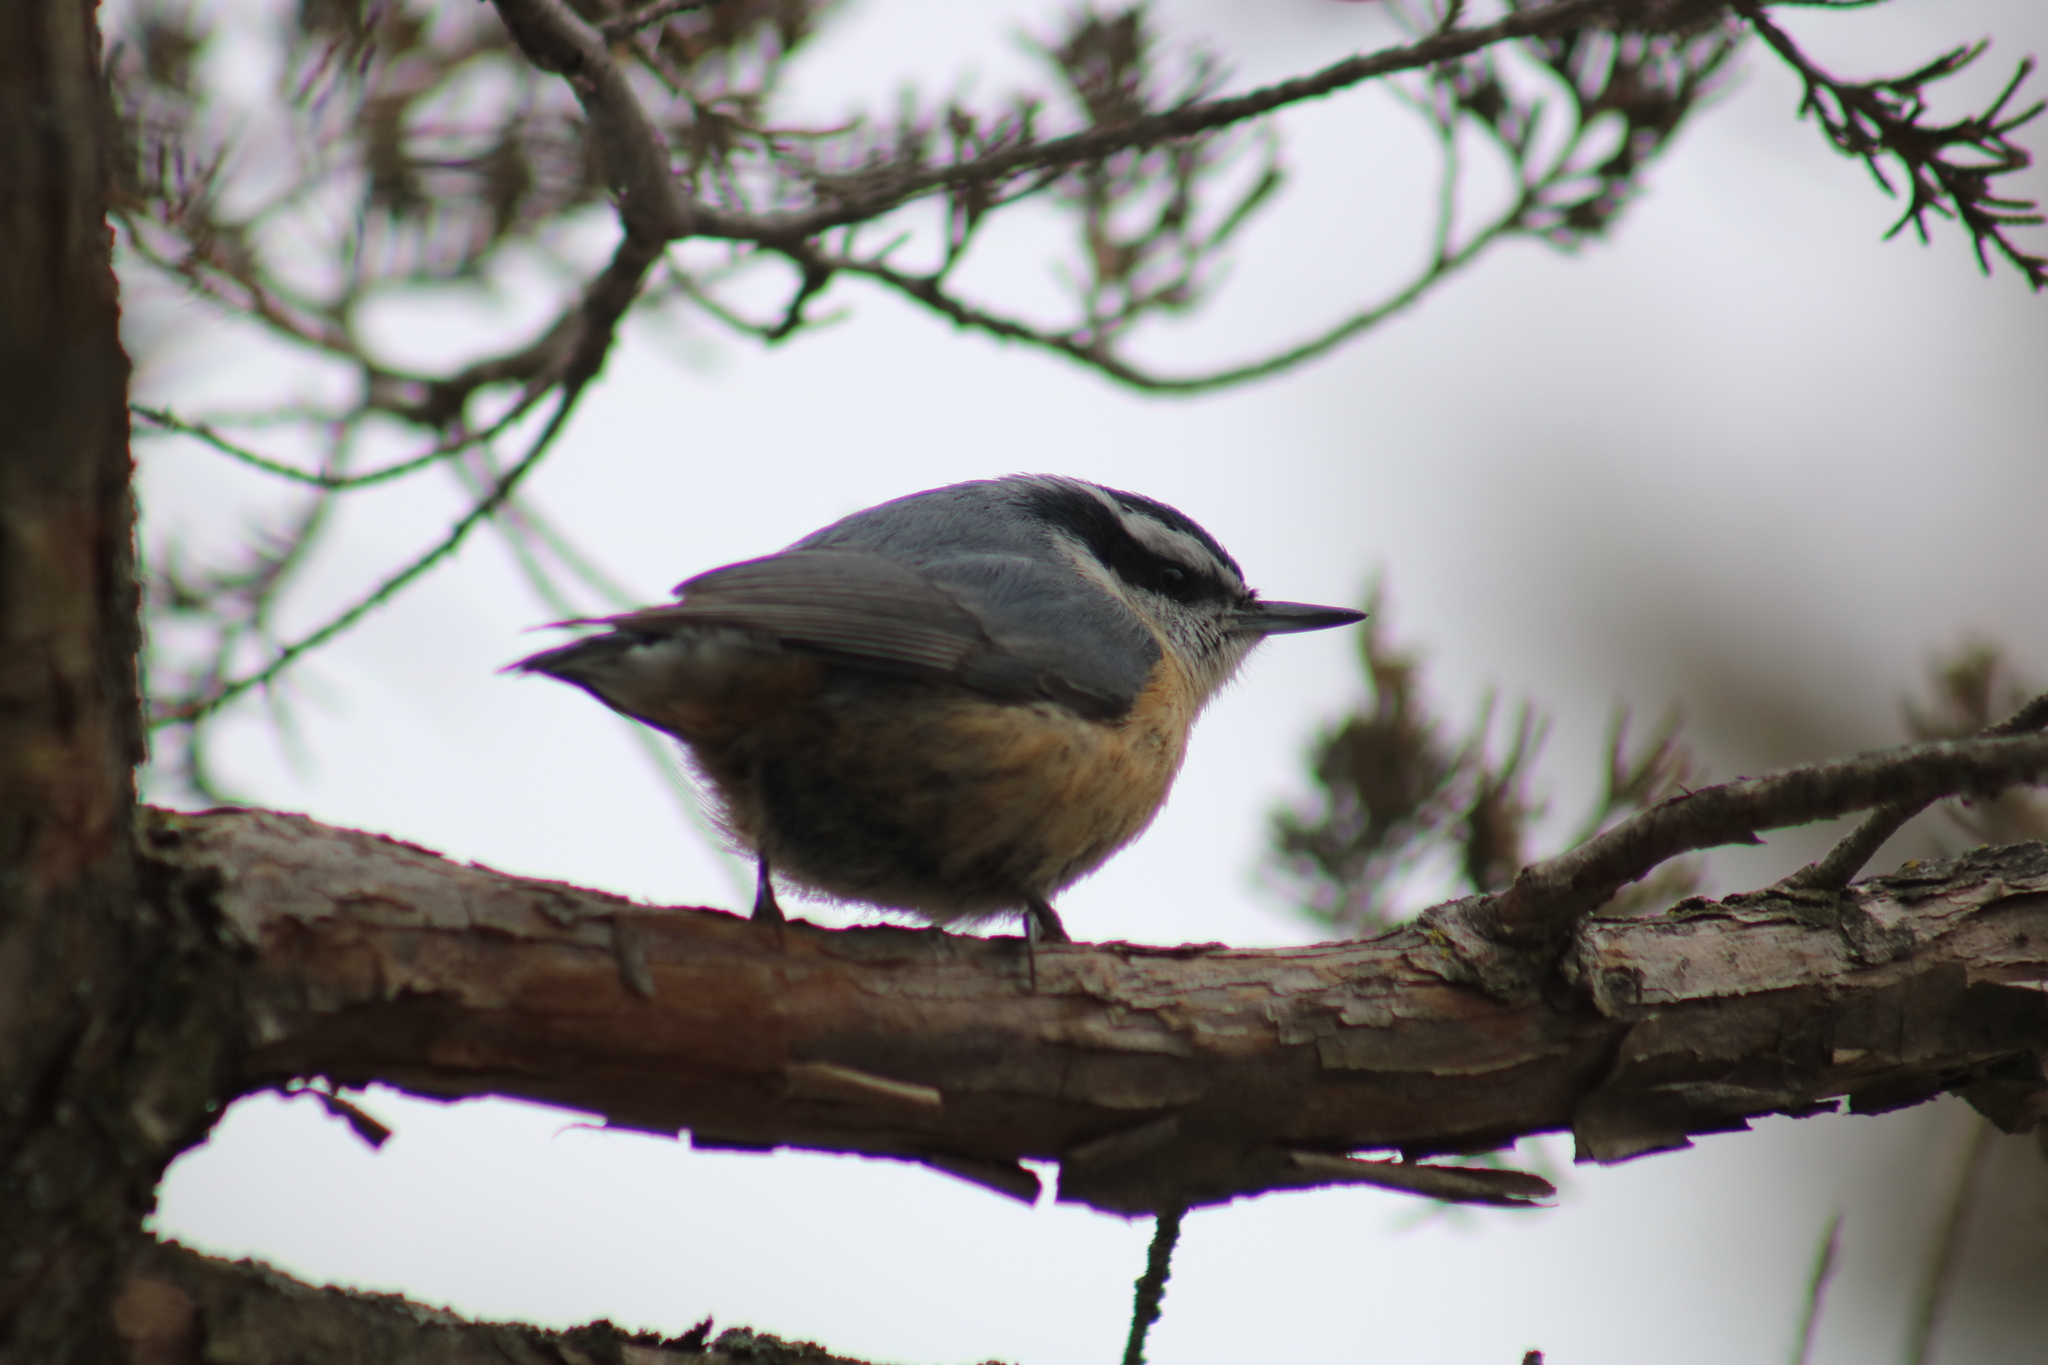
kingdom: Animalia
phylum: Chordata
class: Aves
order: Passeriformes
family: Sittidae
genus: Sitta
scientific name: Sitta canadensis
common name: Red-breasted nuthatch
